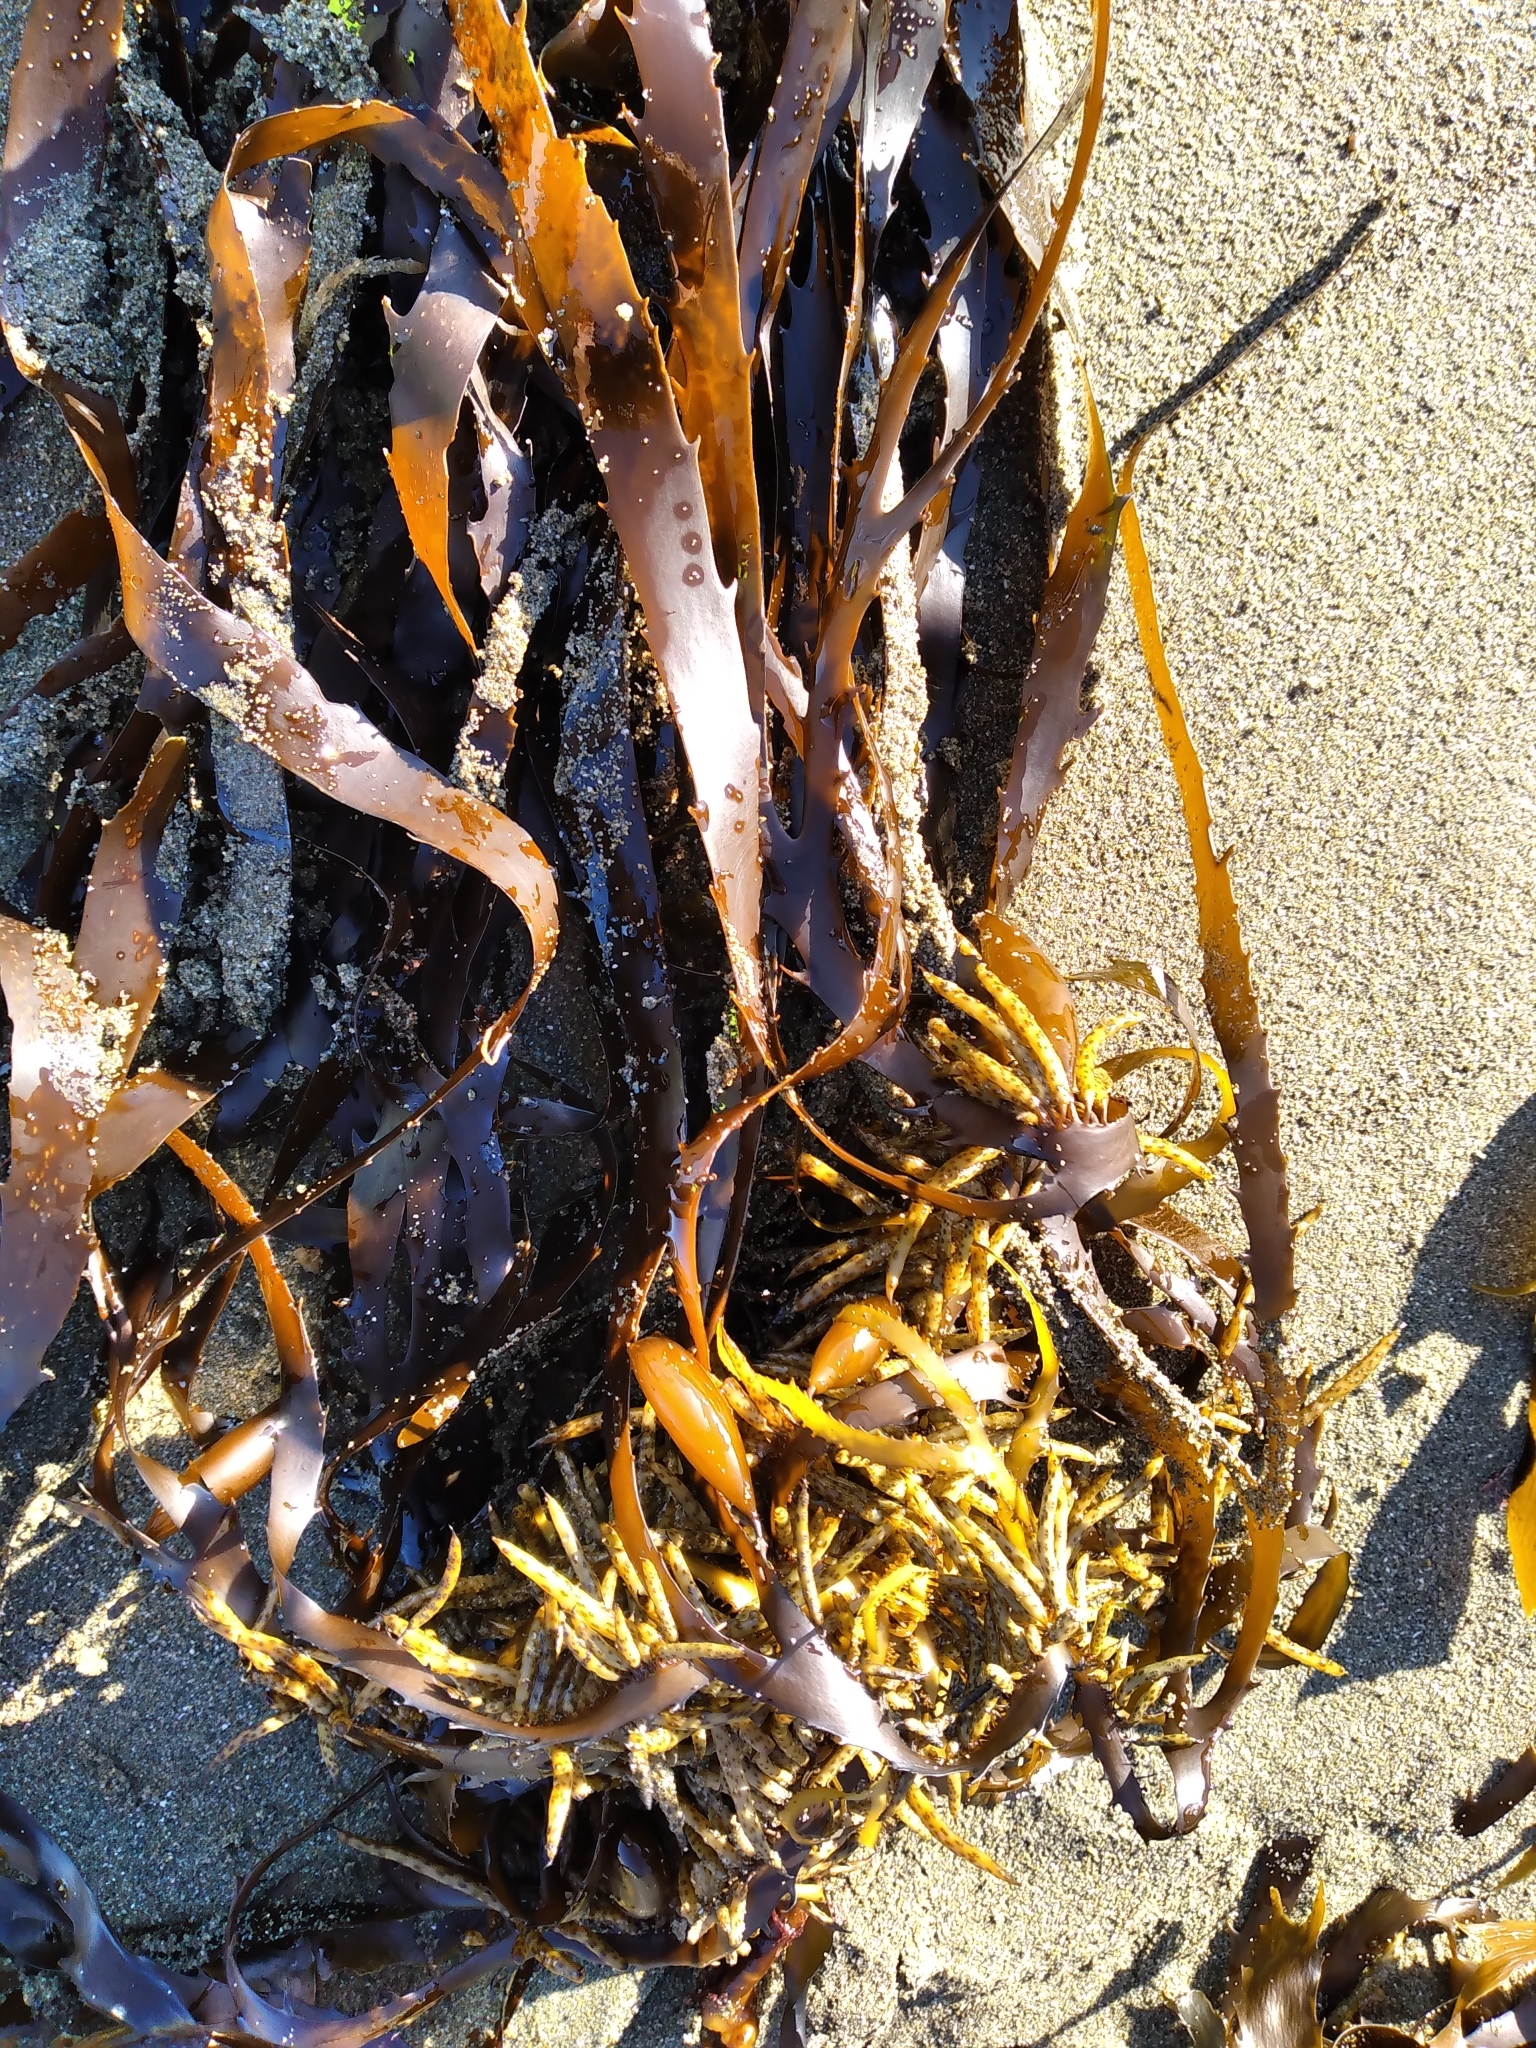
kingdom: Chromista
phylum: Ochrophyta
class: Phaeophyceae
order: Fucales
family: Seirococcaceae
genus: Marginariella
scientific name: Marginariella boryana
